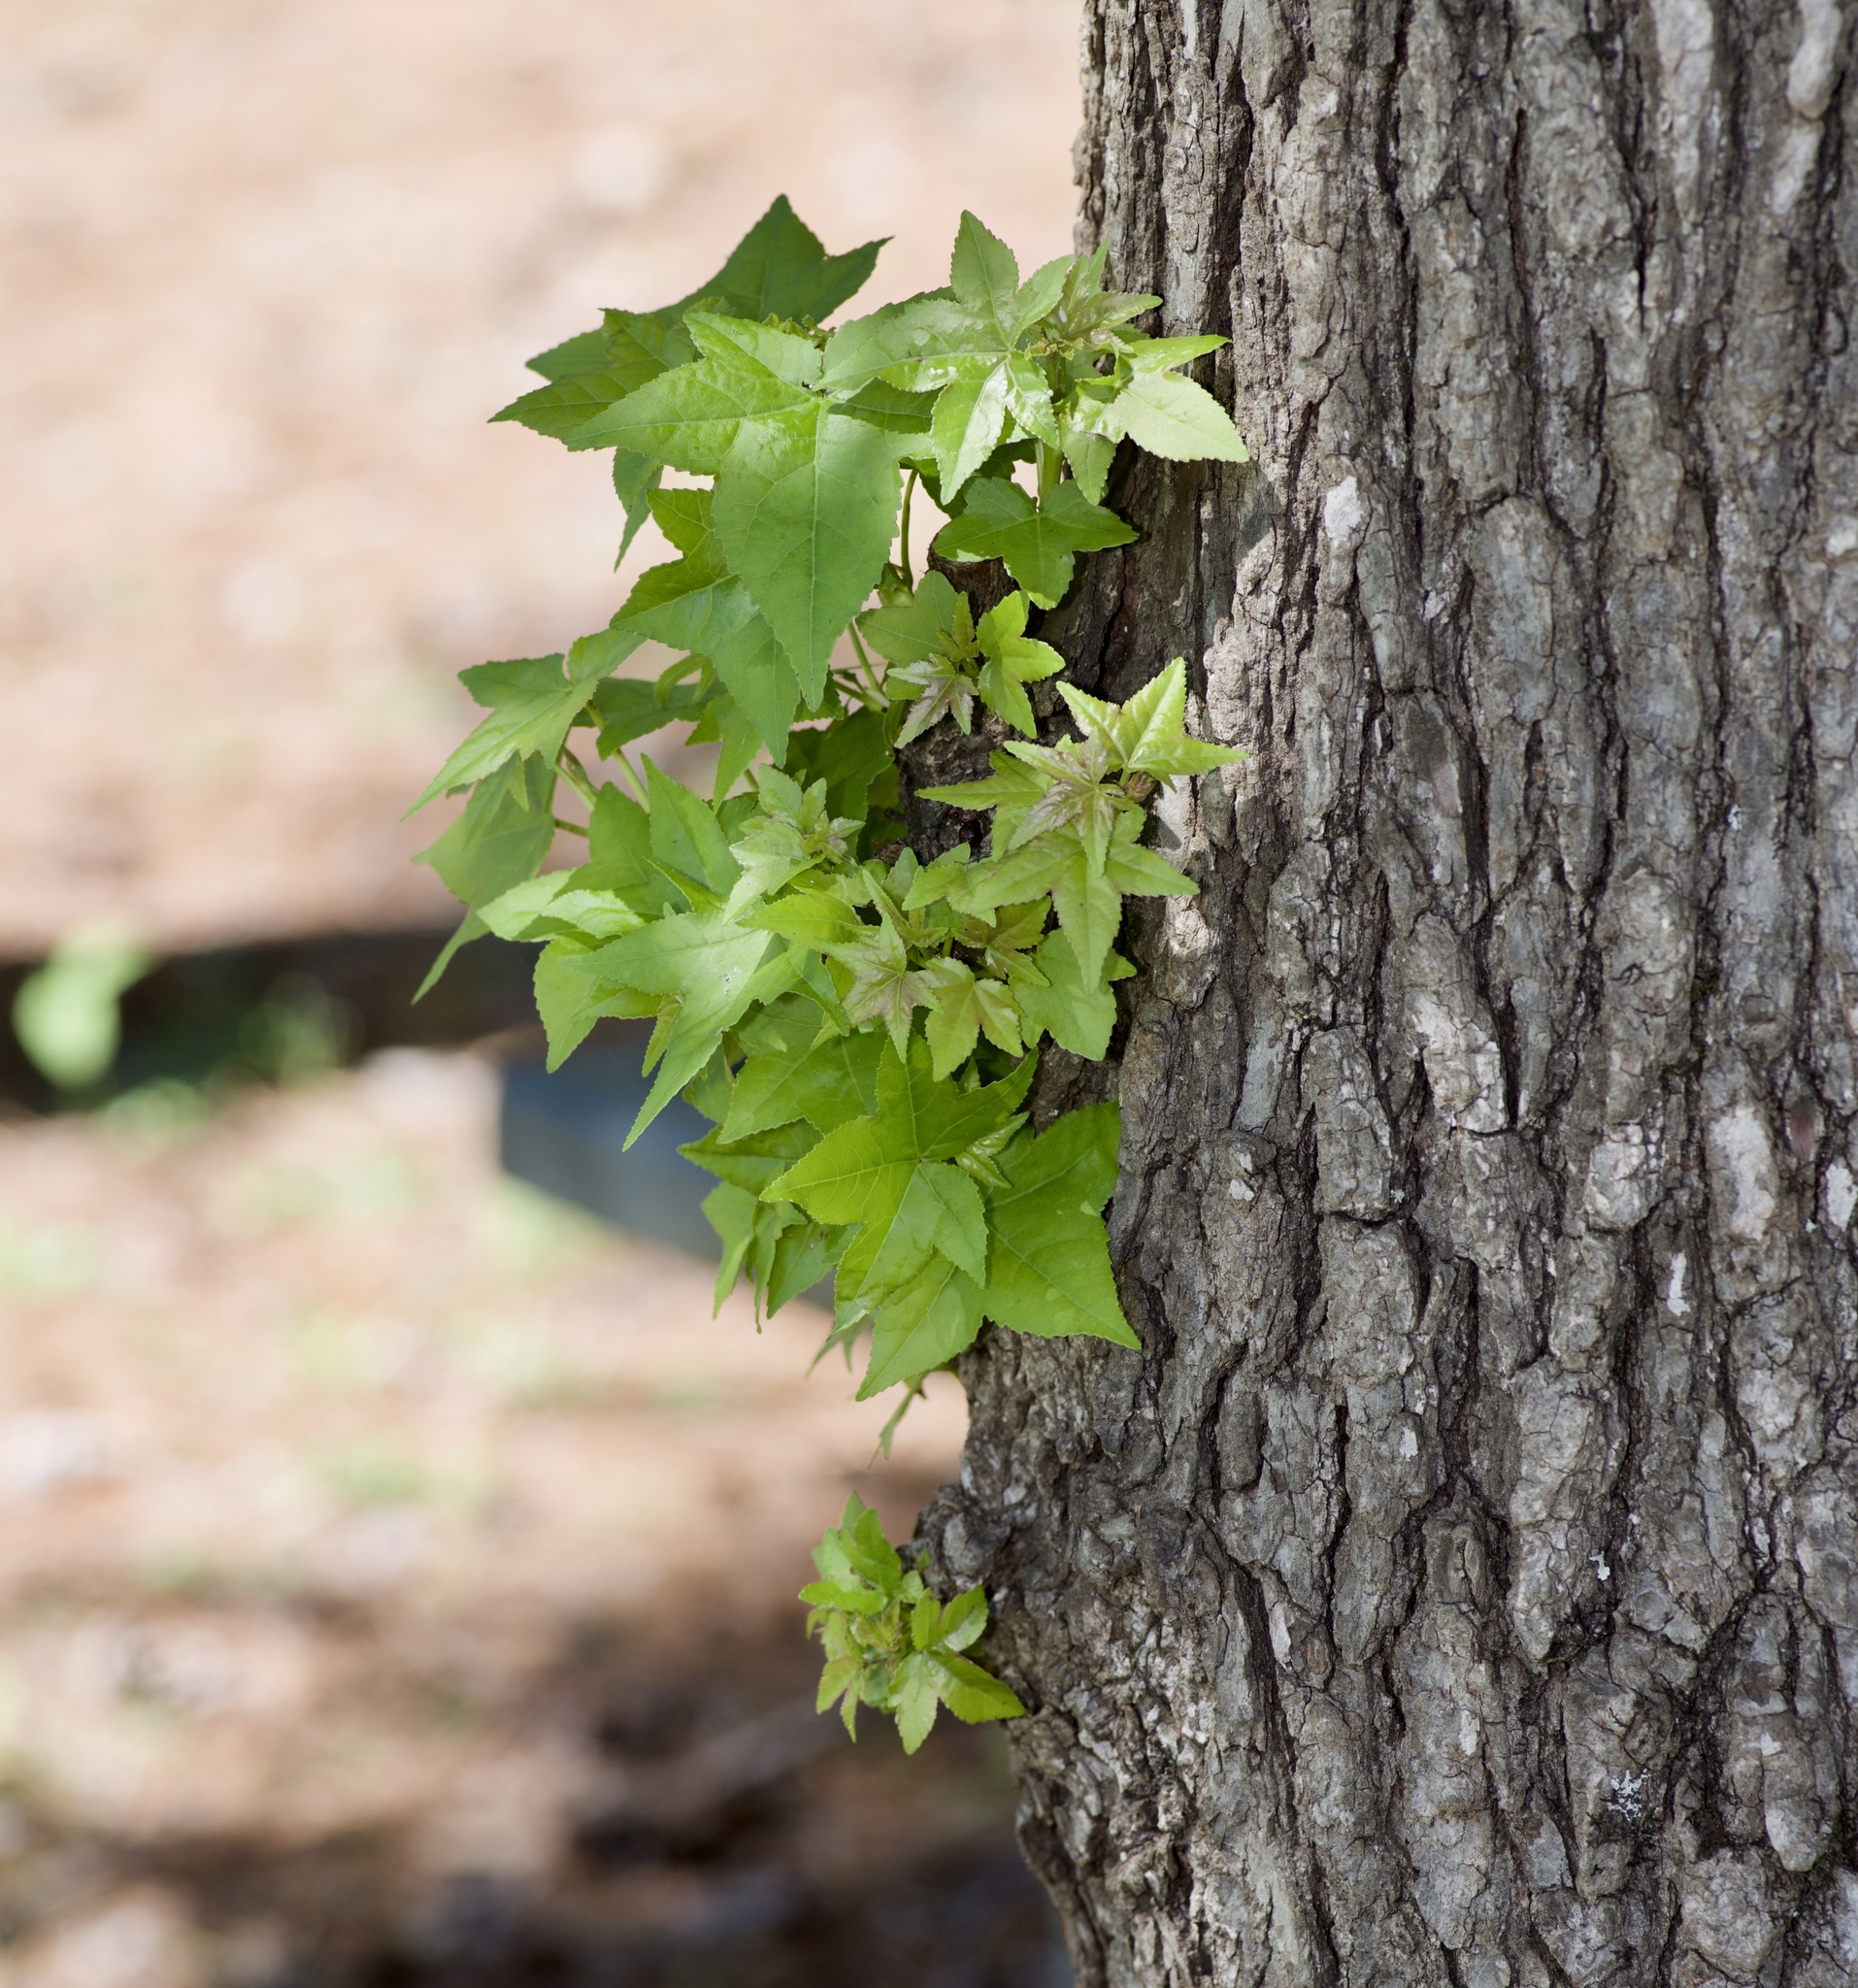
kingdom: Plantae
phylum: Tracheophyta
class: Magnoliopsida
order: Saxifragales
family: Altingiaceae
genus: Liquidambar
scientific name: Liquidambar styraciflua
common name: Sweet gum
